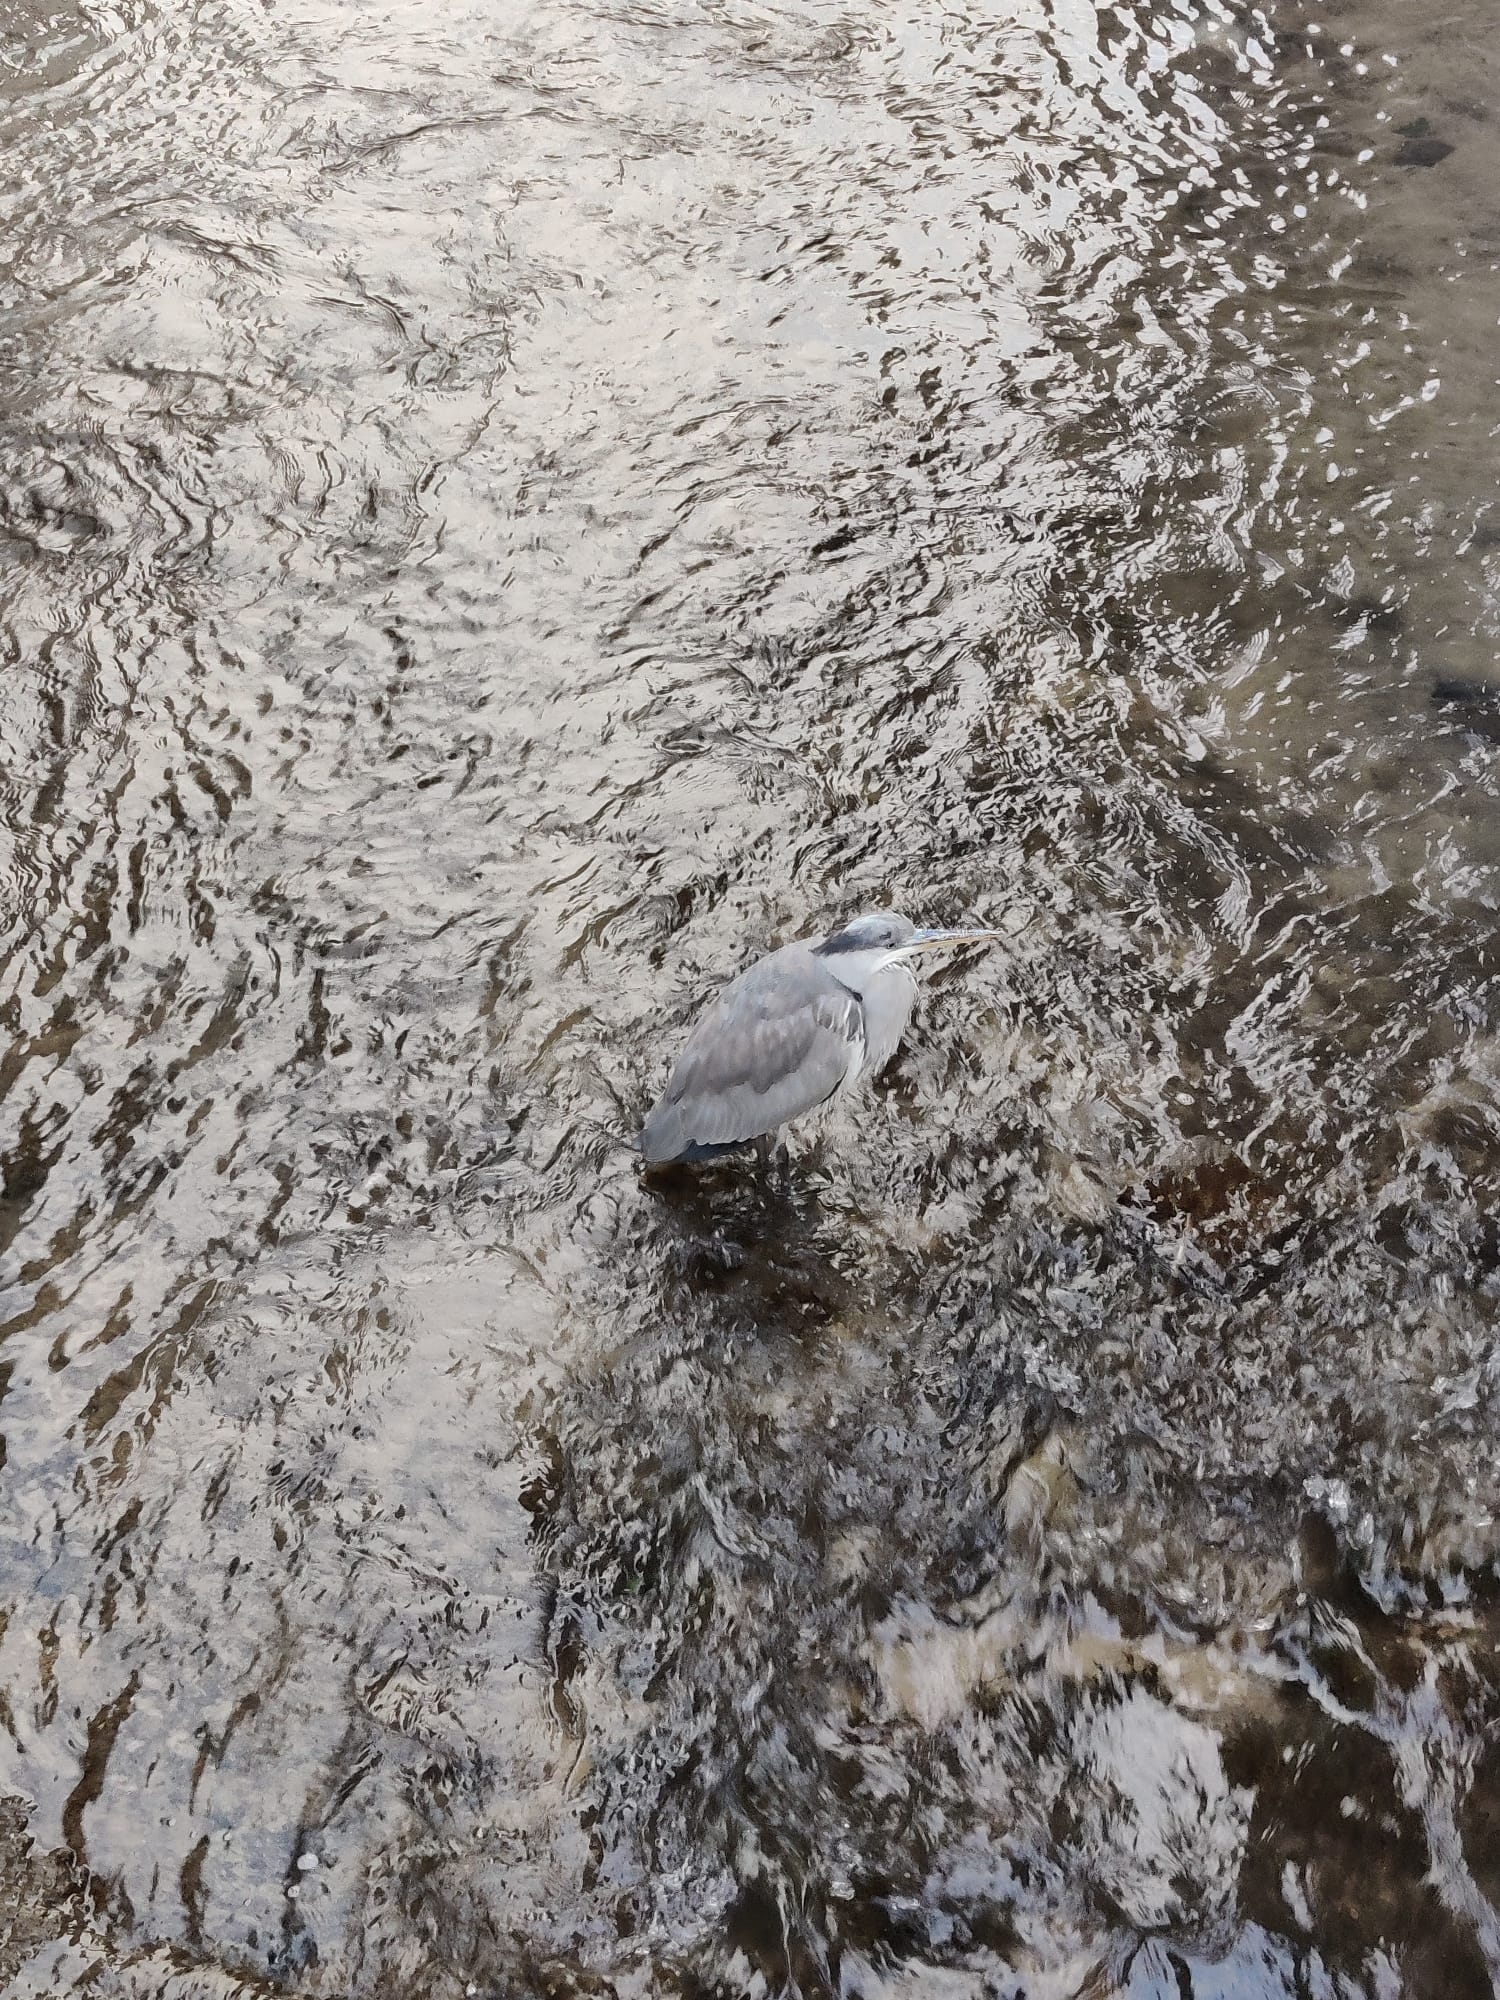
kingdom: Animalia
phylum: Chordata
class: Aves
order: Pelecaniformes
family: Ardeidae
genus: Ardea
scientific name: Ardea cinerea
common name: Grey heron
